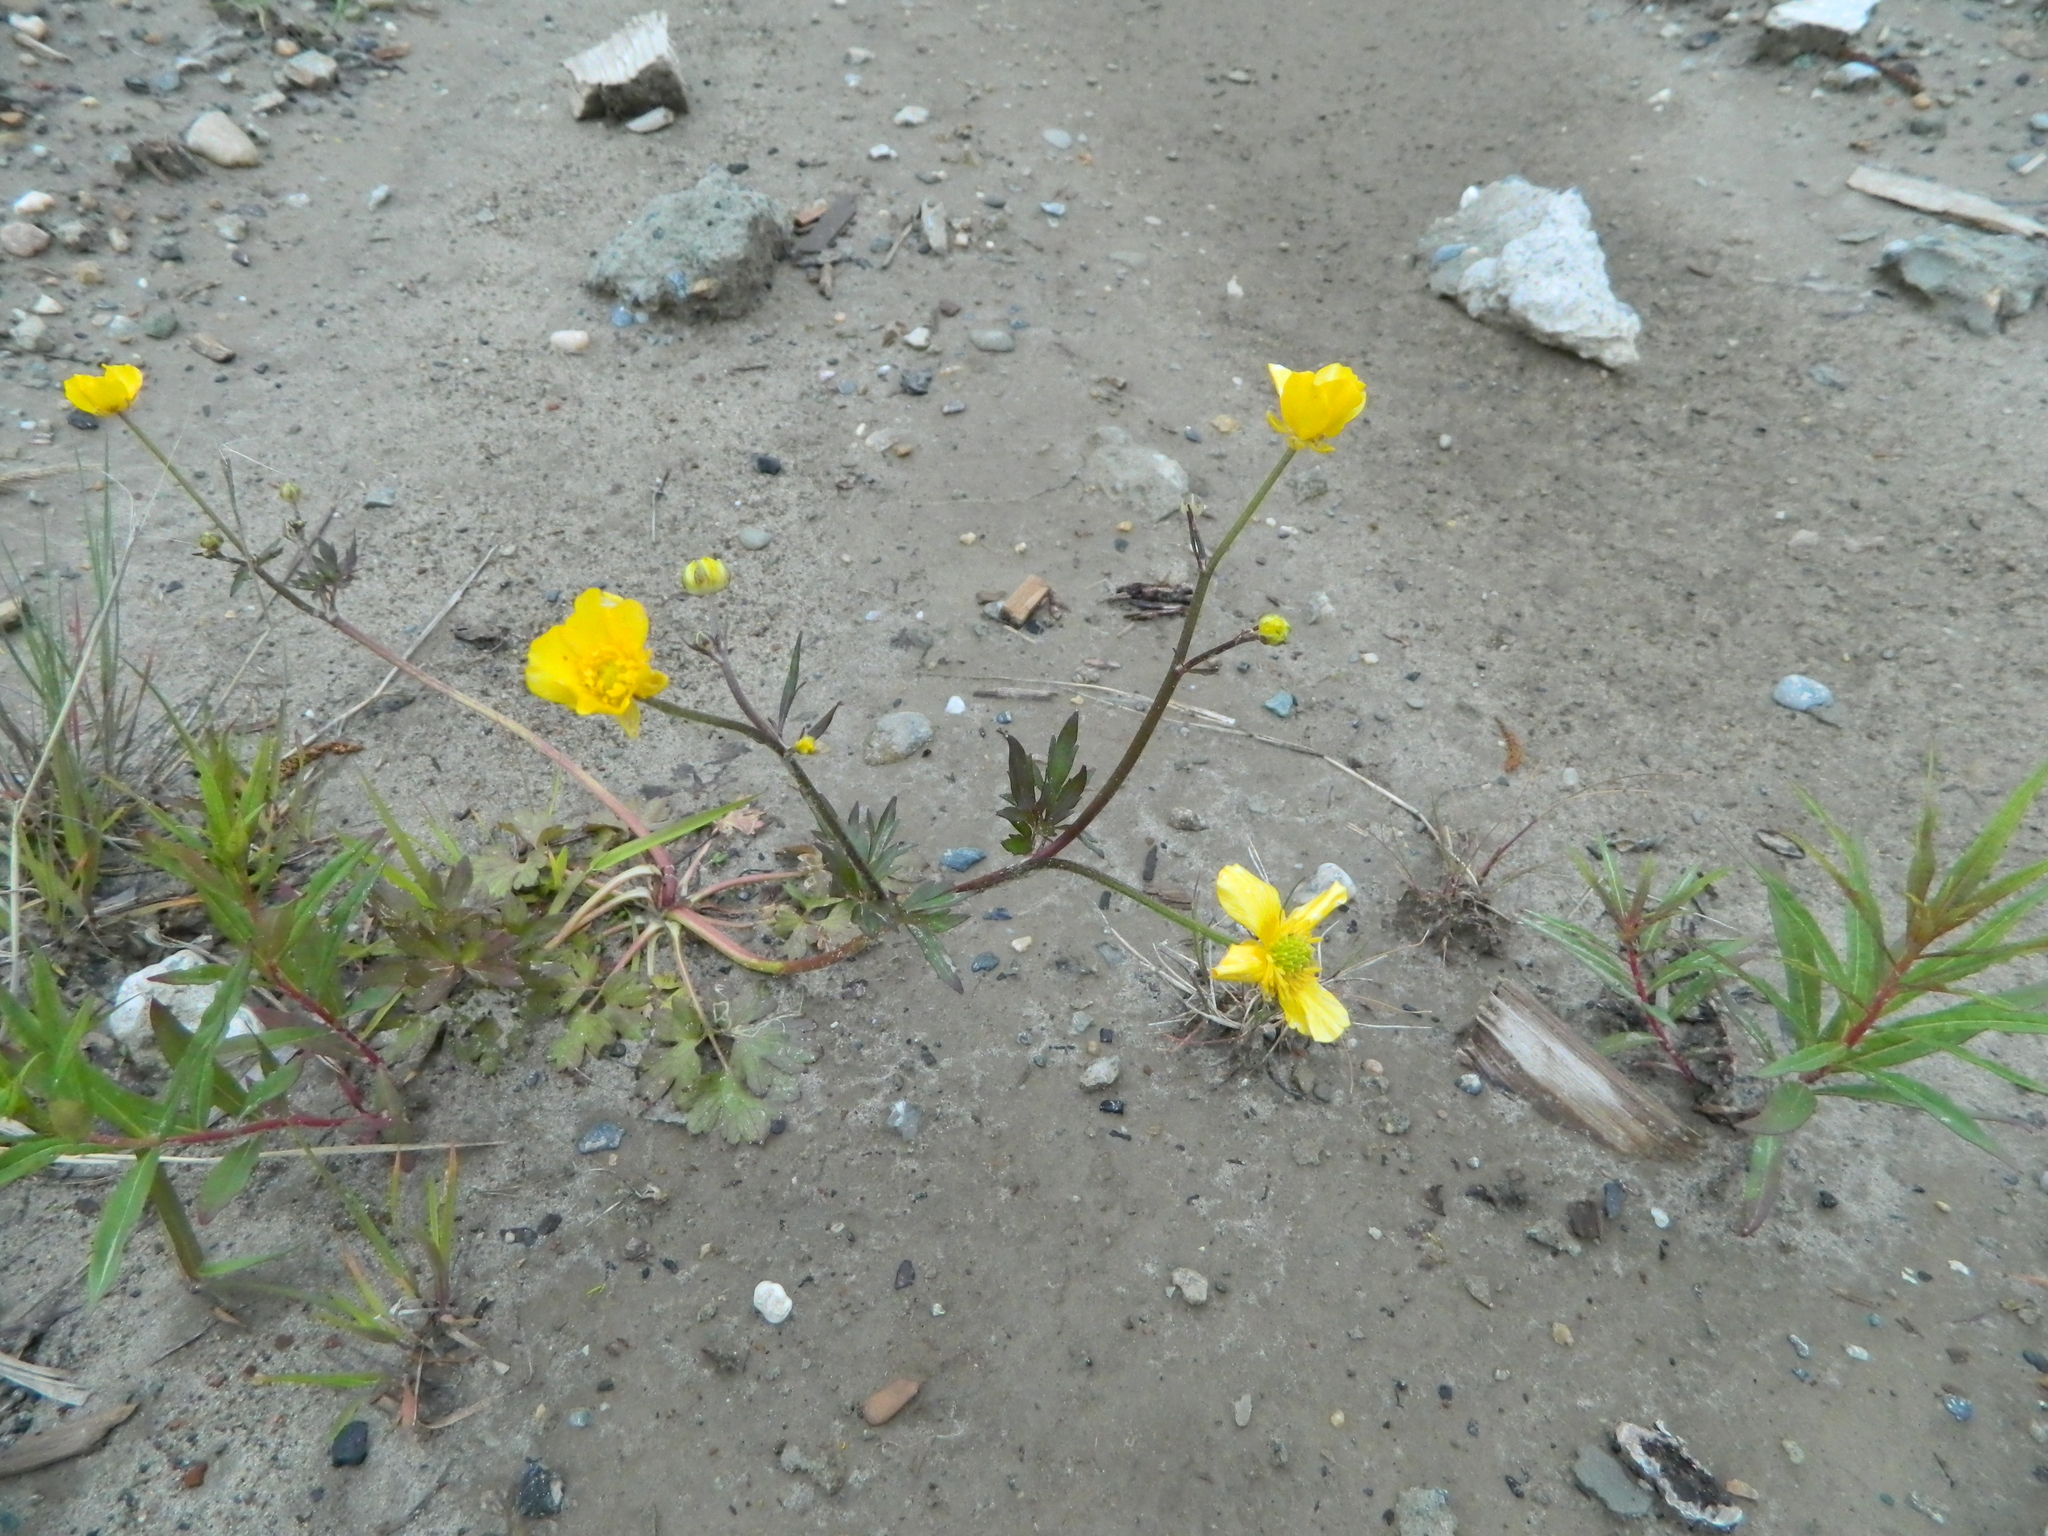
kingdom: Plantae
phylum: Tracheophyta
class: Magnoliopsida
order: Ranunculales
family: Ranunculaceae
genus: Ranunculus
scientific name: Ranunculus repens
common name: Creeping buttercup
